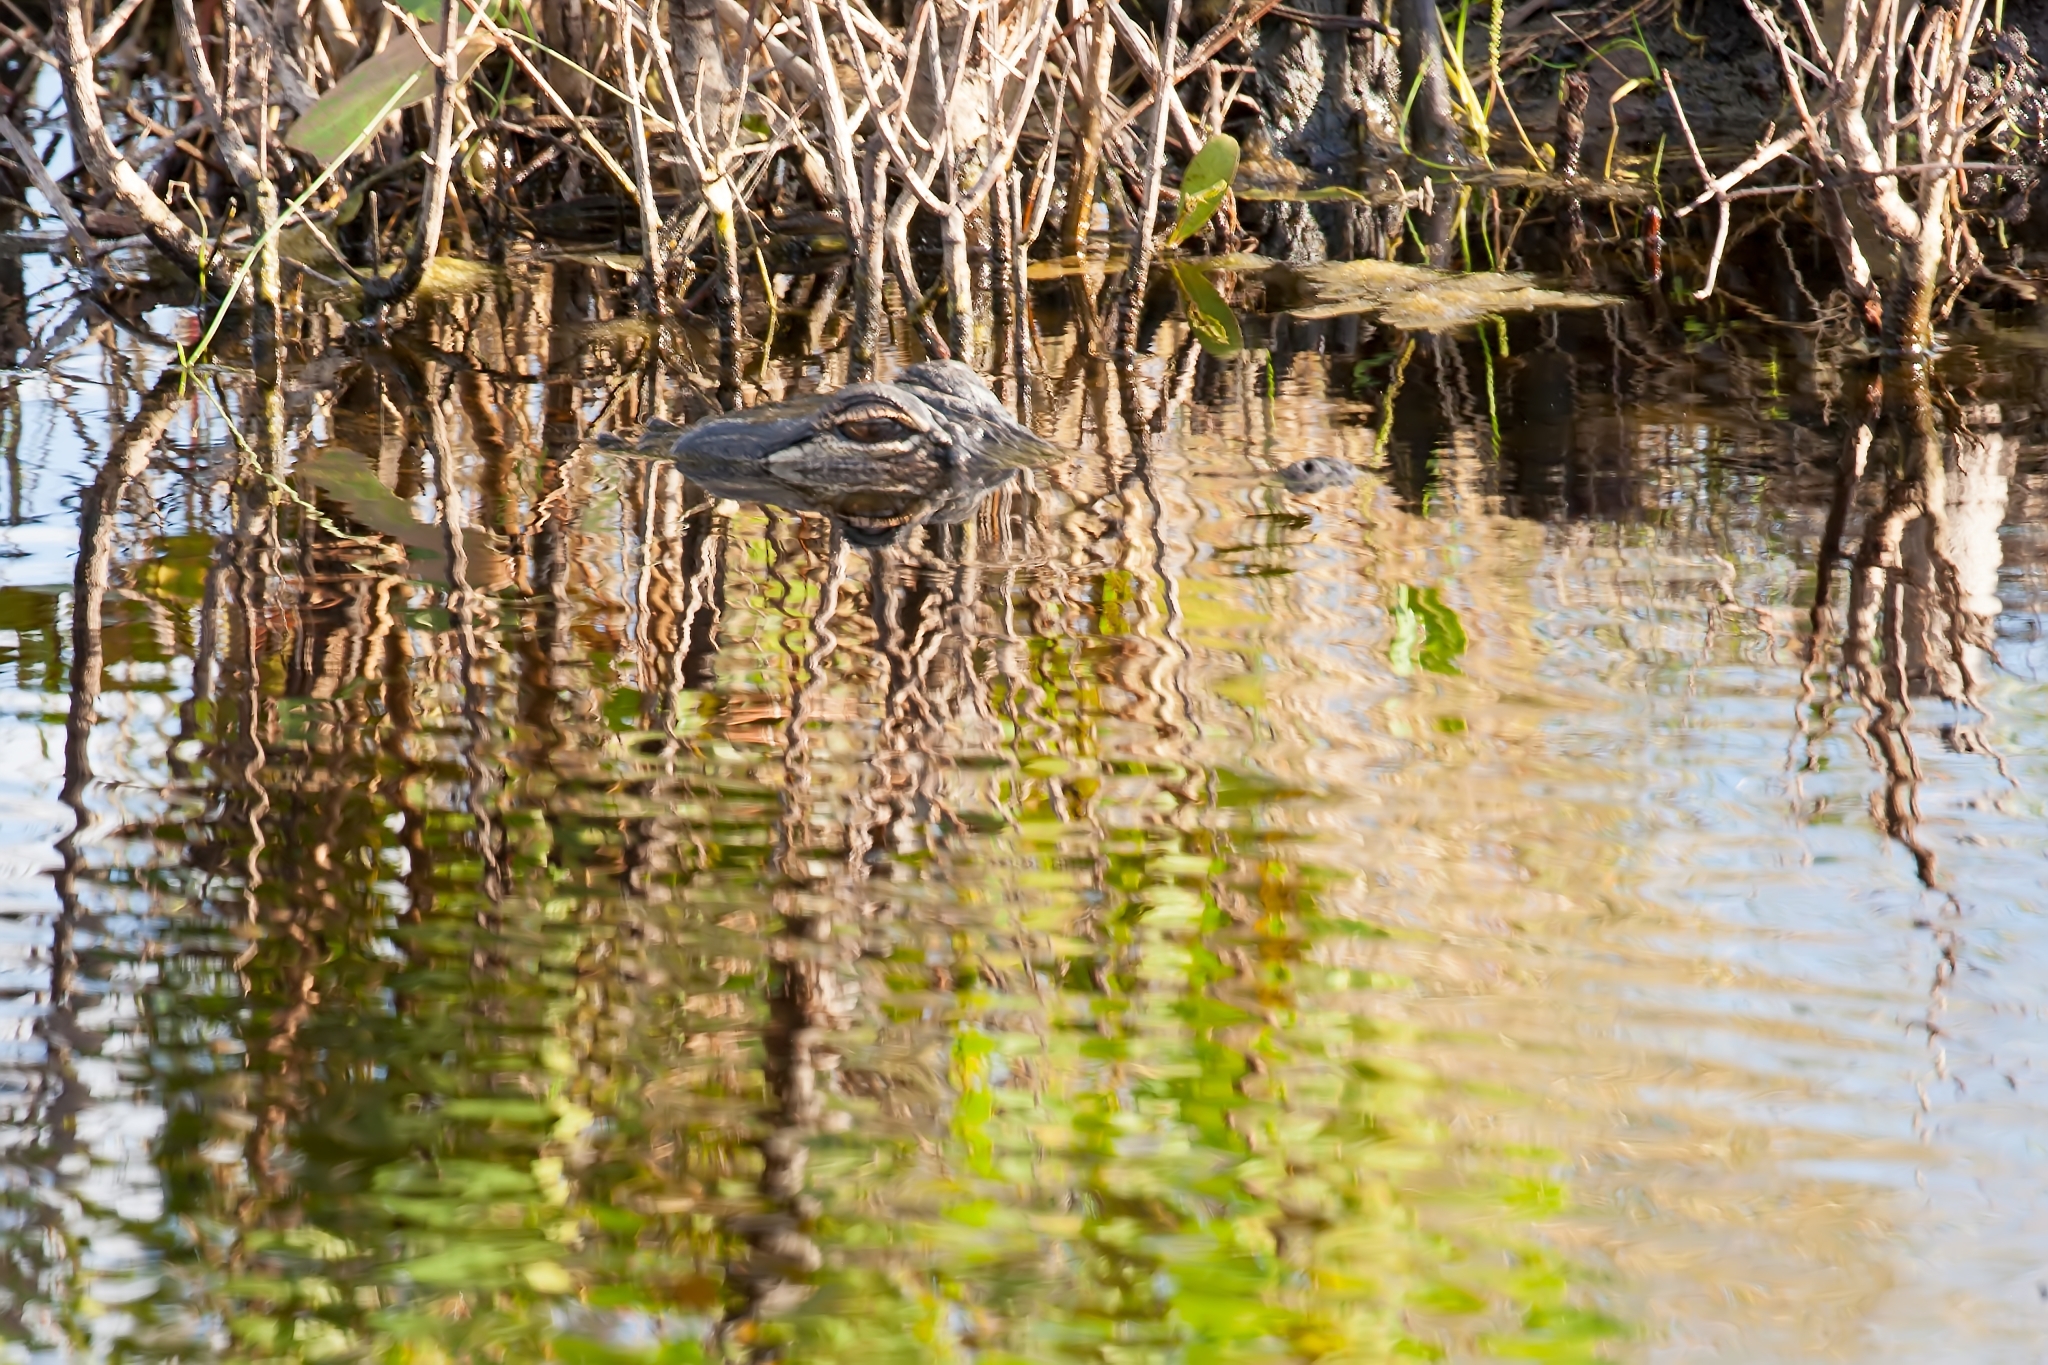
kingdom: Animalia
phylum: Chordata
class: Crocodylia
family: Alligatoridae
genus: Alligator
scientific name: Alligator mississippiensis
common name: American alligator
